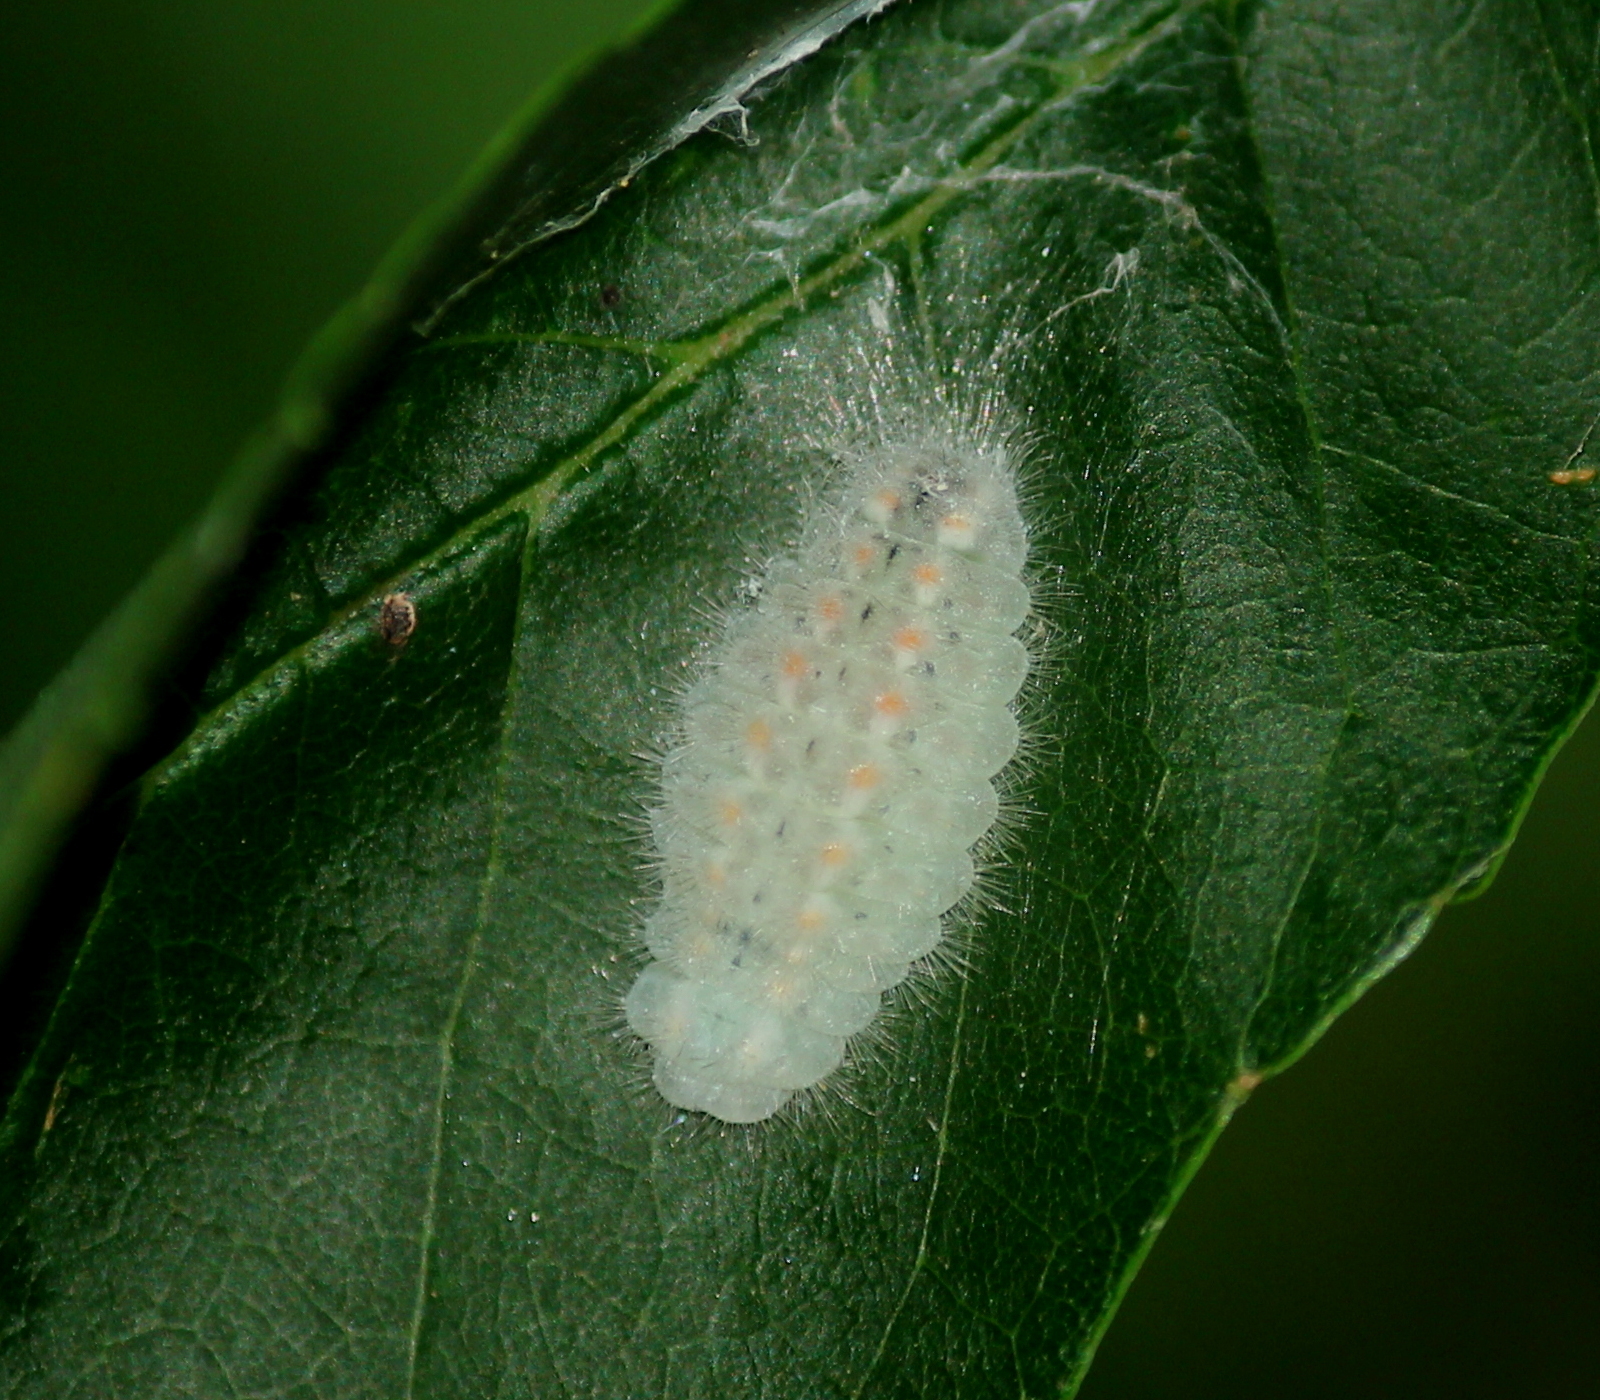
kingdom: Animalia
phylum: Arthropoda
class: Insecta
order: Lepidoptera
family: Lycaenidae
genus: Feniseca
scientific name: Feniseca tarquinius
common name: Harvester
